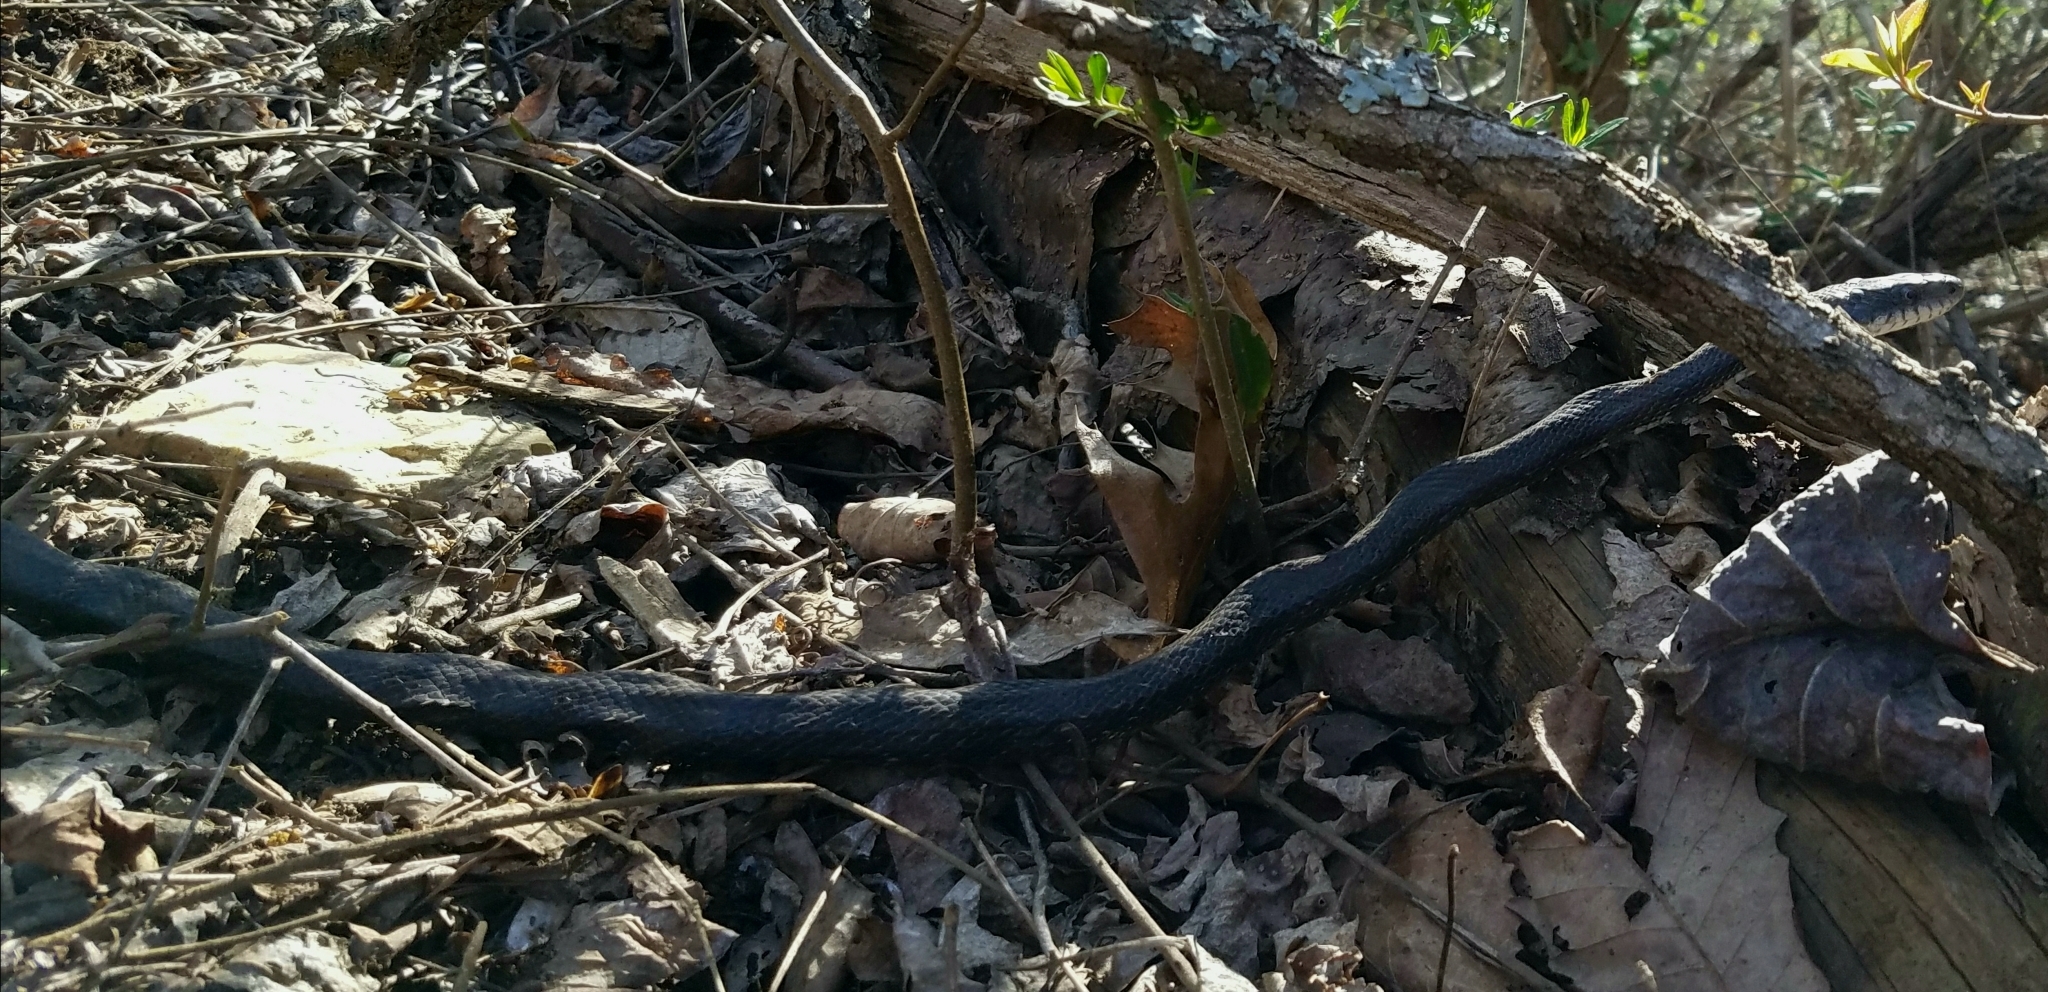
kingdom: Animalia
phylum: Chordata
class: Squamata
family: Colubridae
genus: Pantherophis
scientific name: Pantherophis alleghaniensis
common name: Eastern rat snake
